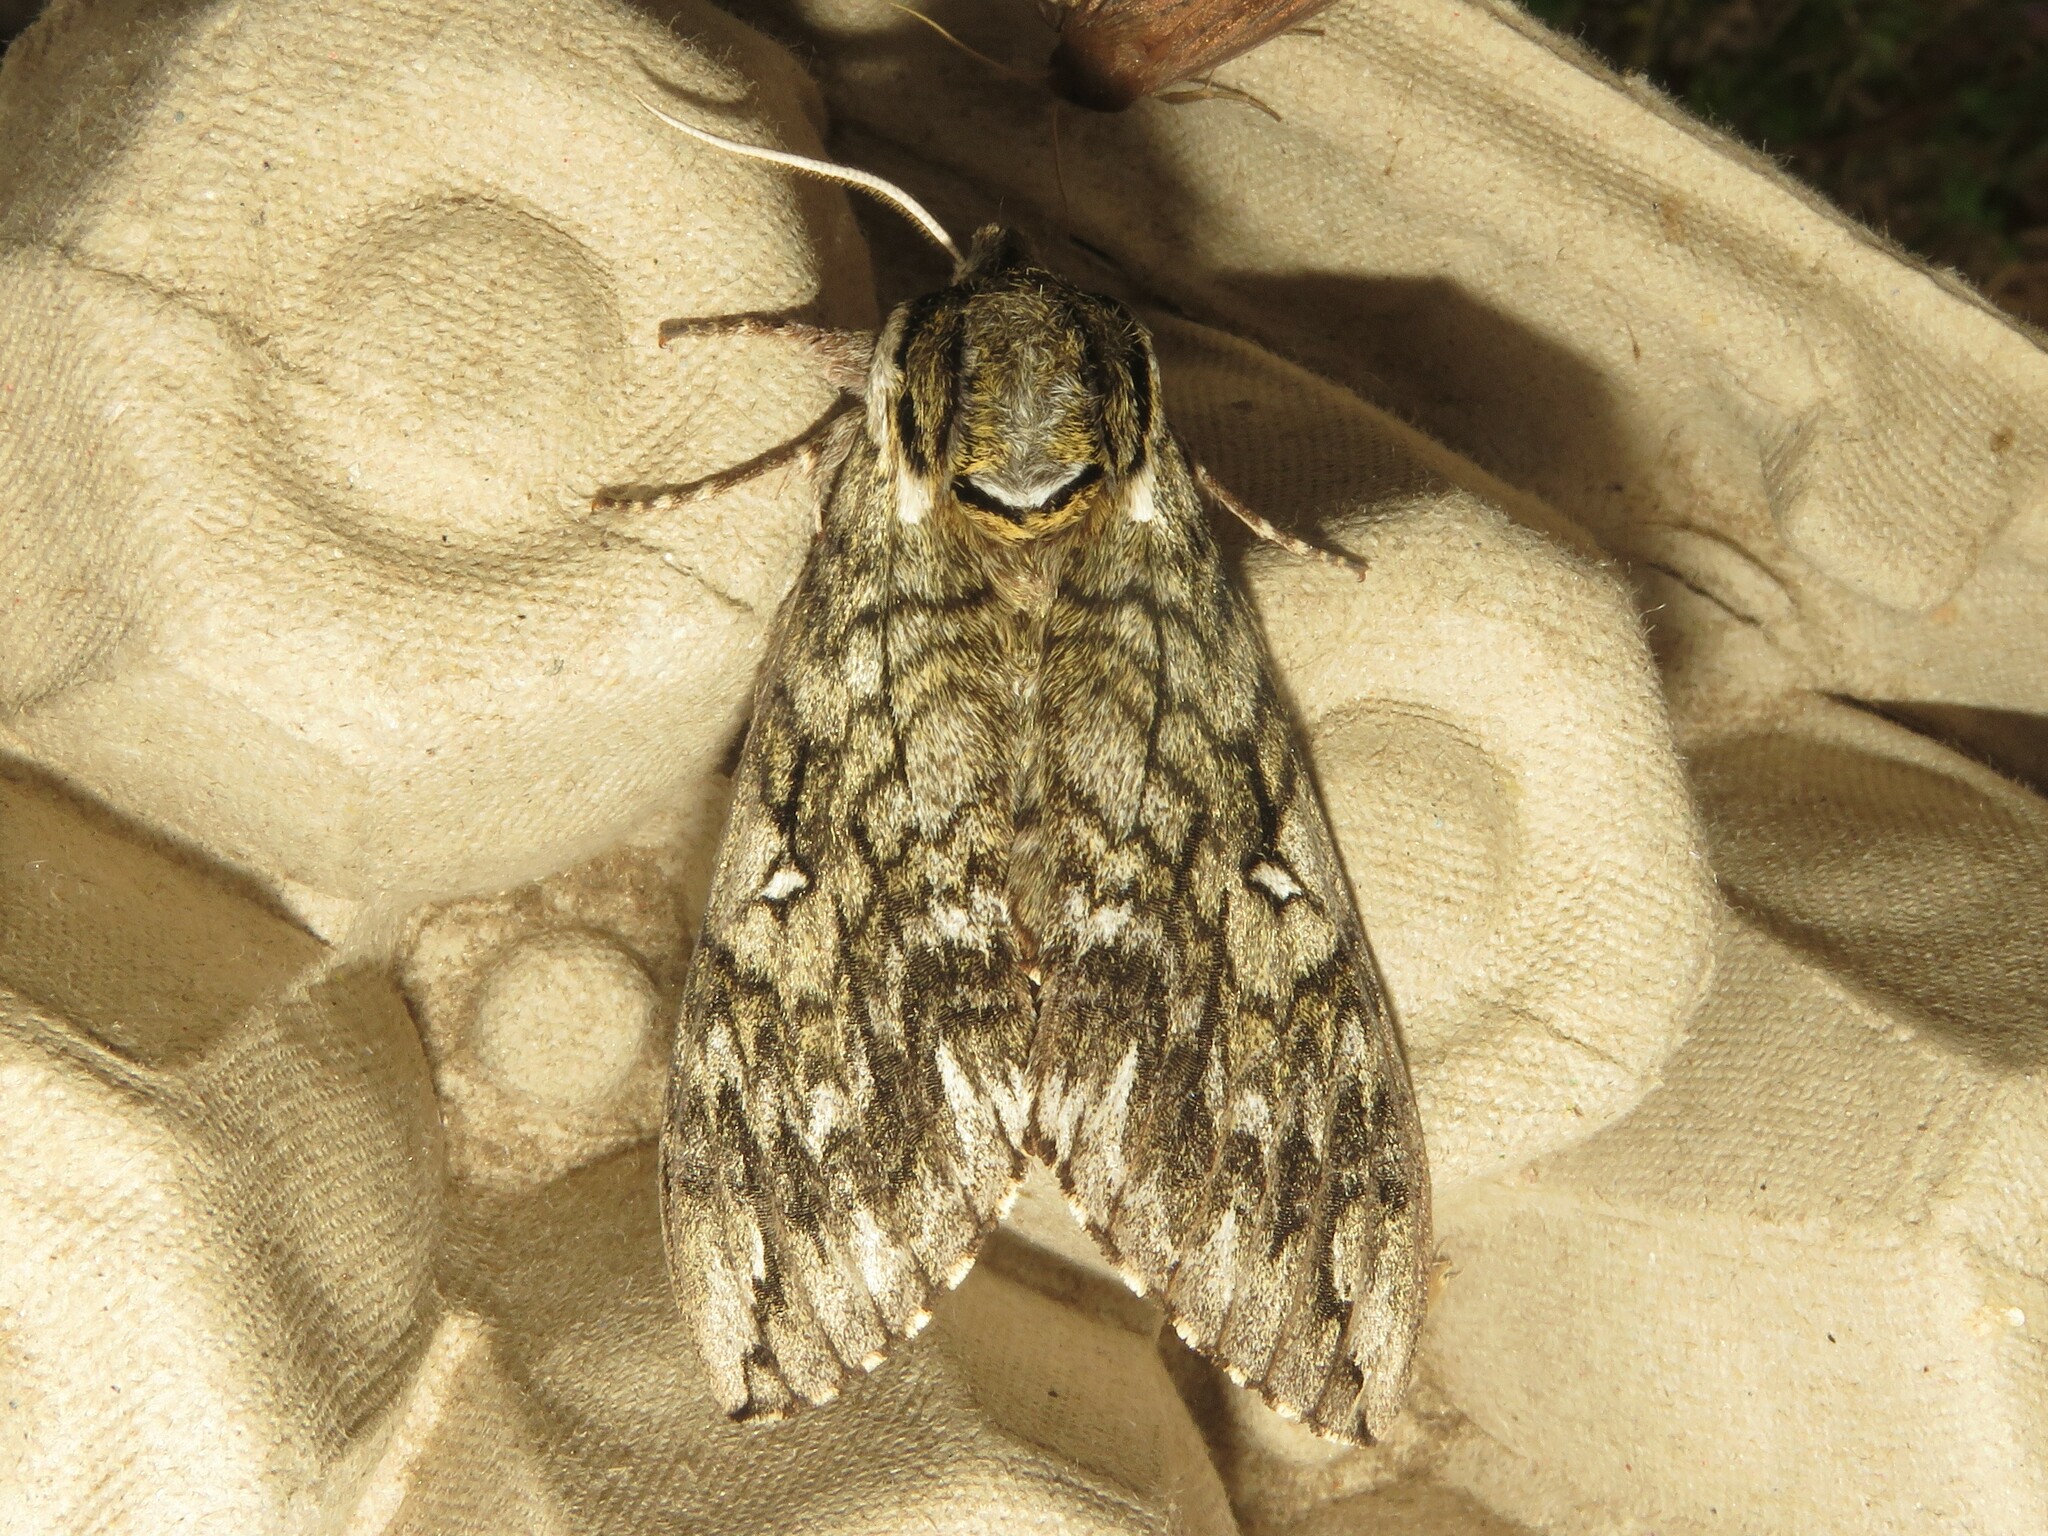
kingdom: Animalia
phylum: Arthropoda
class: Insecta
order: Lepidoptera
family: Sphingidae
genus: Ceratomia
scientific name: Ceratomia undulosa
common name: Waved sphinx
